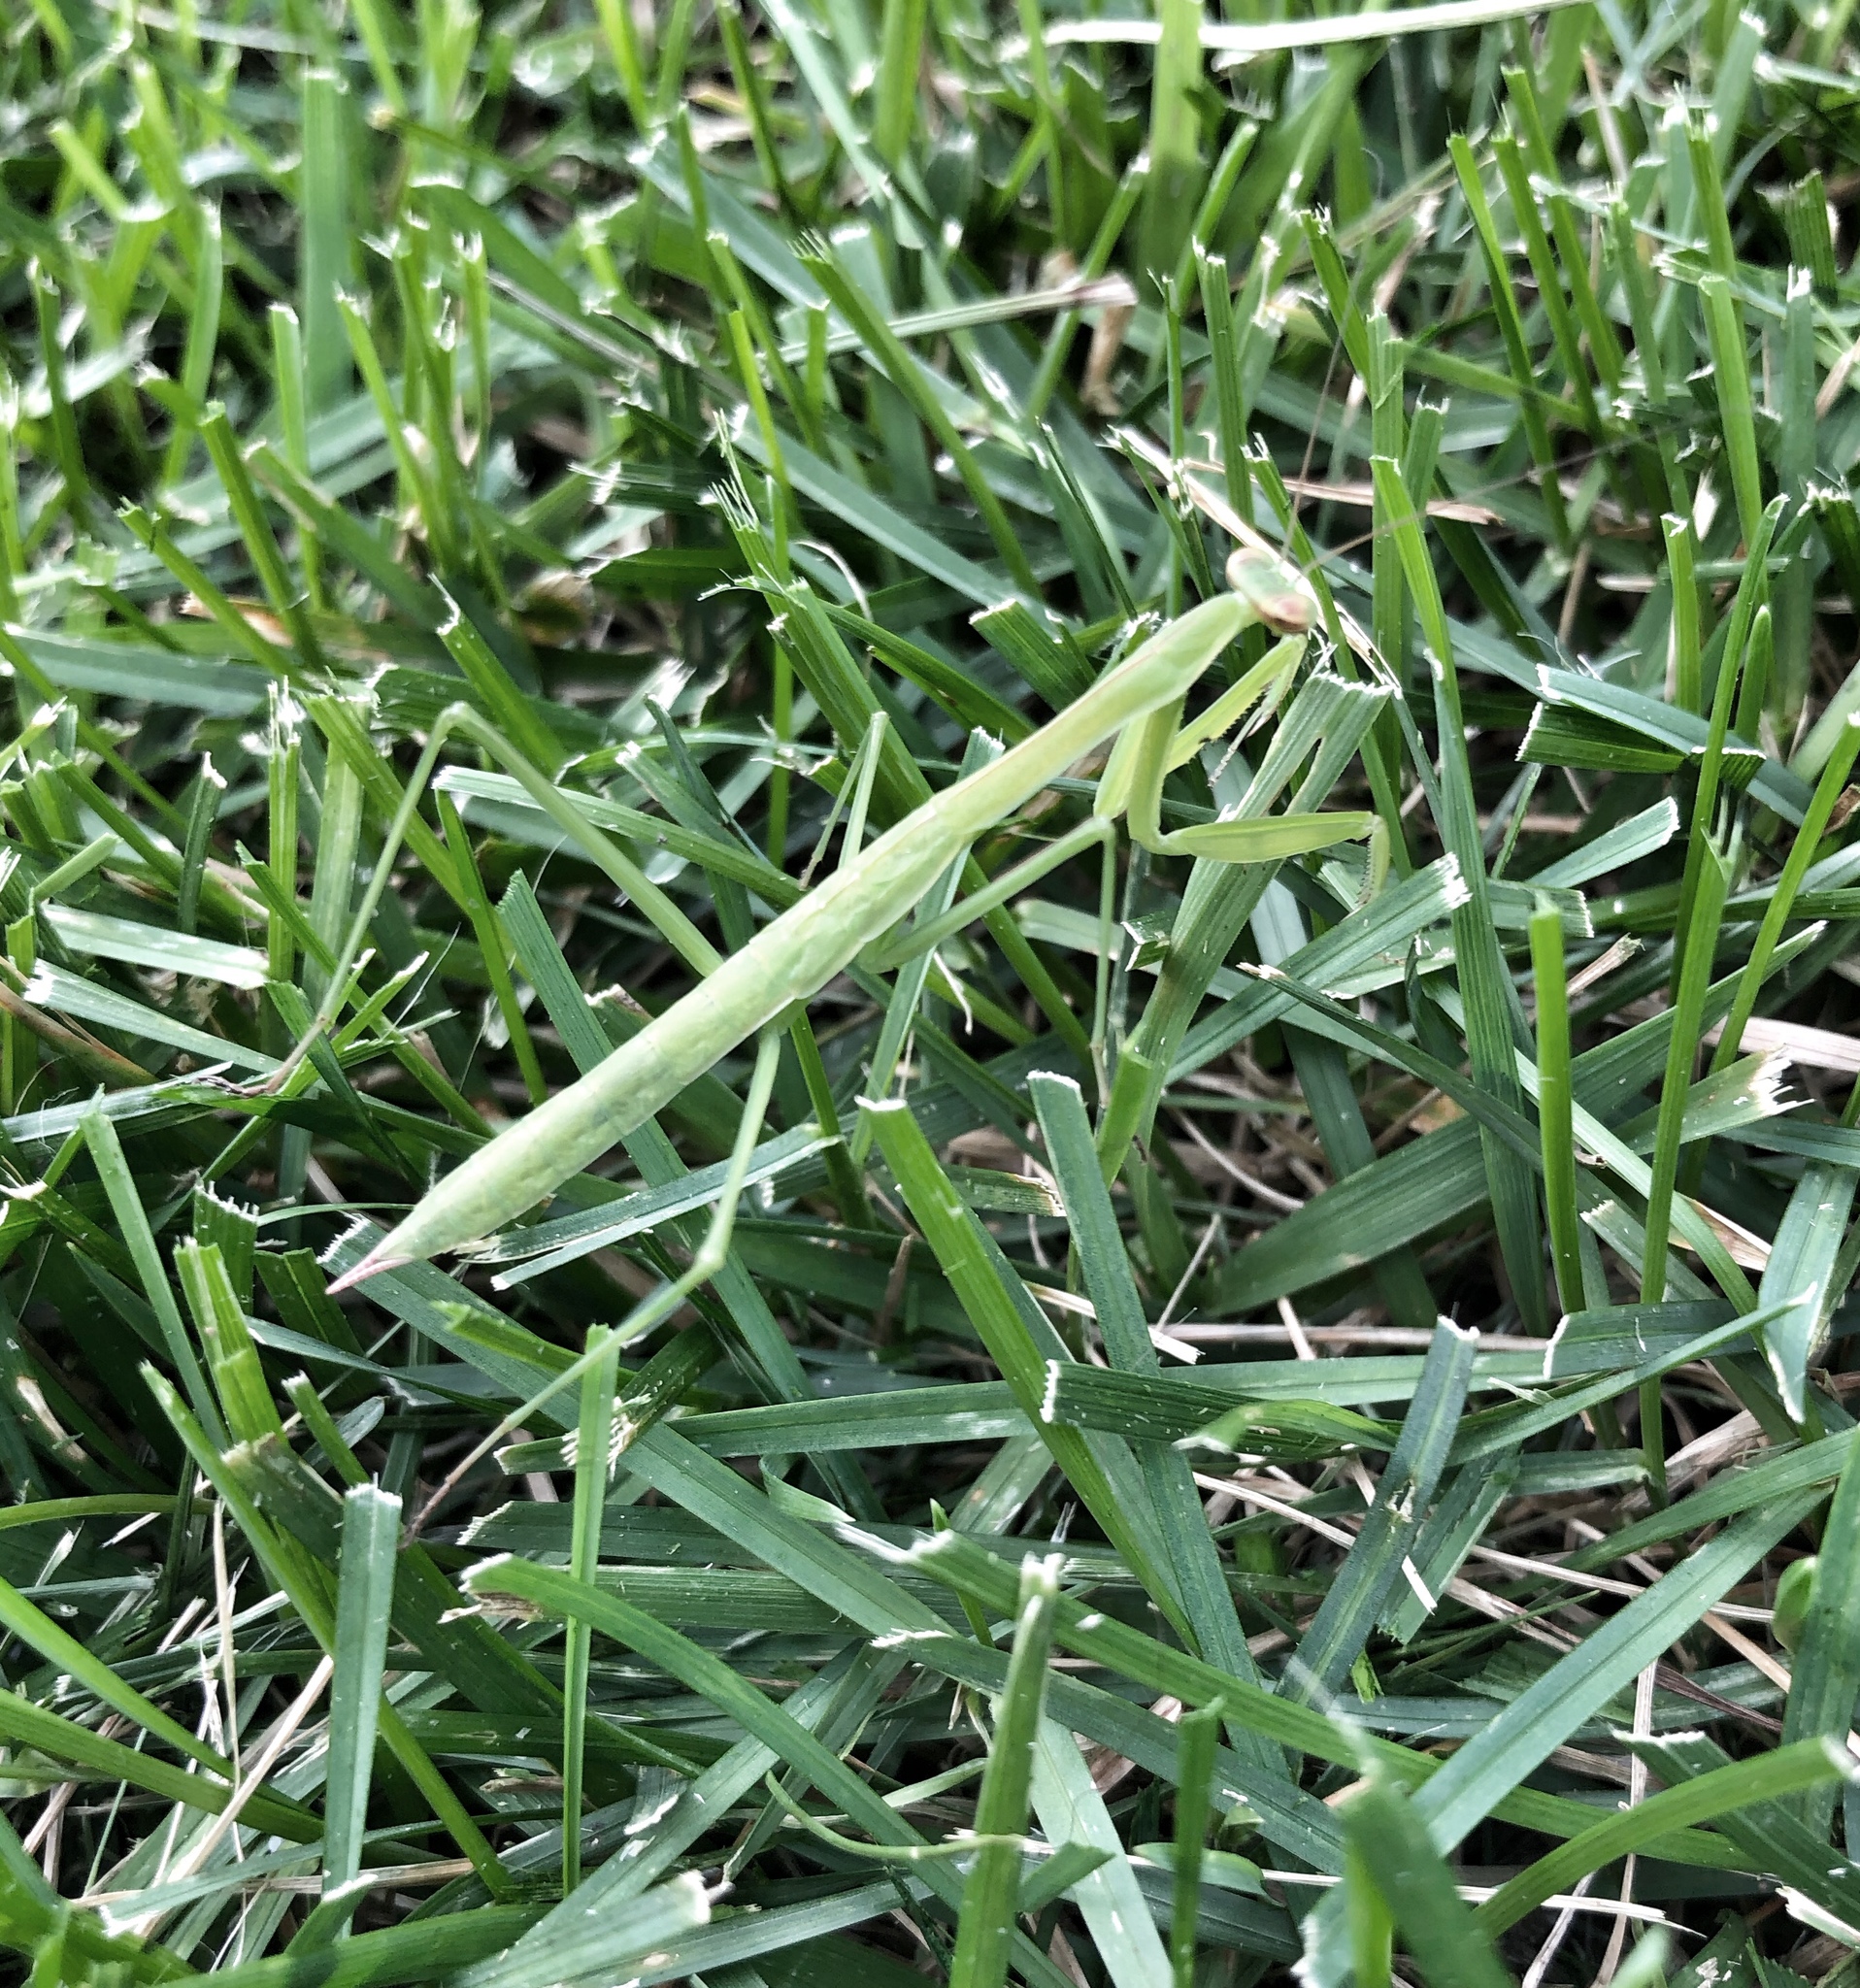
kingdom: Animalia
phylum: Arthropoda
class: Insecta
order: Mantodea
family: Mantidae
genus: Tenodera
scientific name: Tenodera sinensis
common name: Chinese mantis
